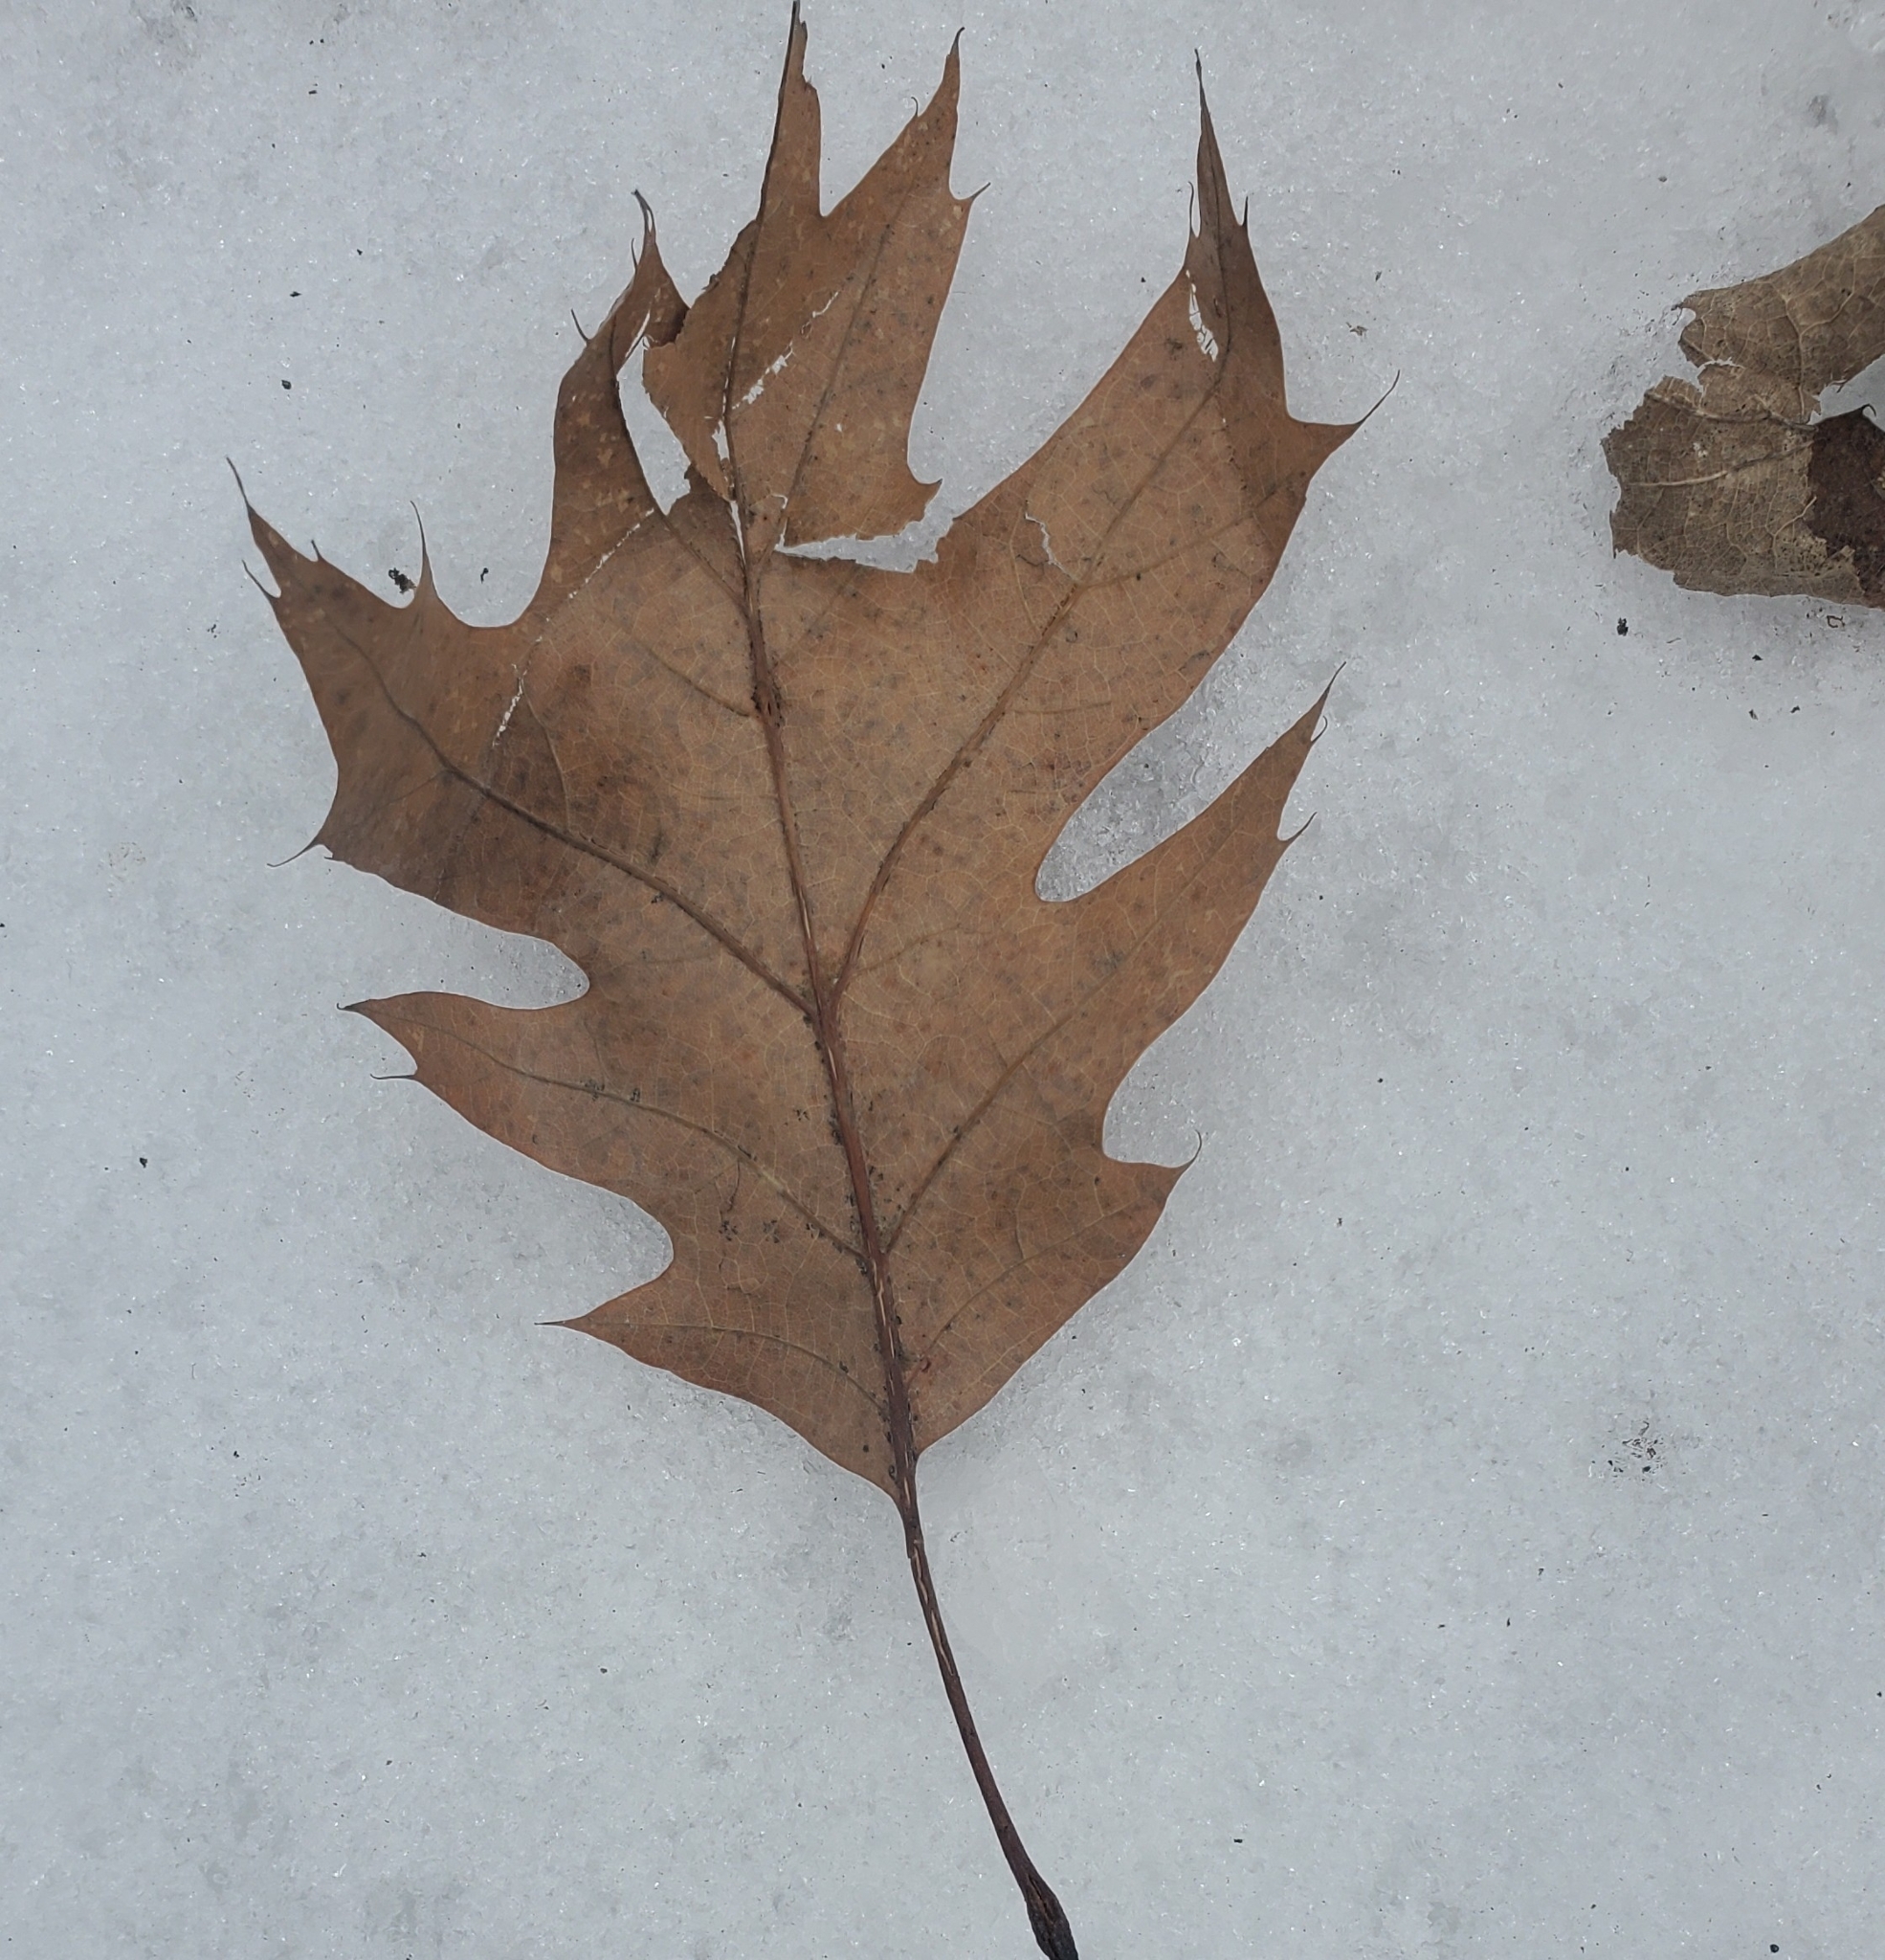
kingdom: Plantae
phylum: Tracheophyta
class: Magnoliopsida
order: Fagales
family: Fagaceae
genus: Quercus
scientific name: Quercus rubra
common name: Red oak
